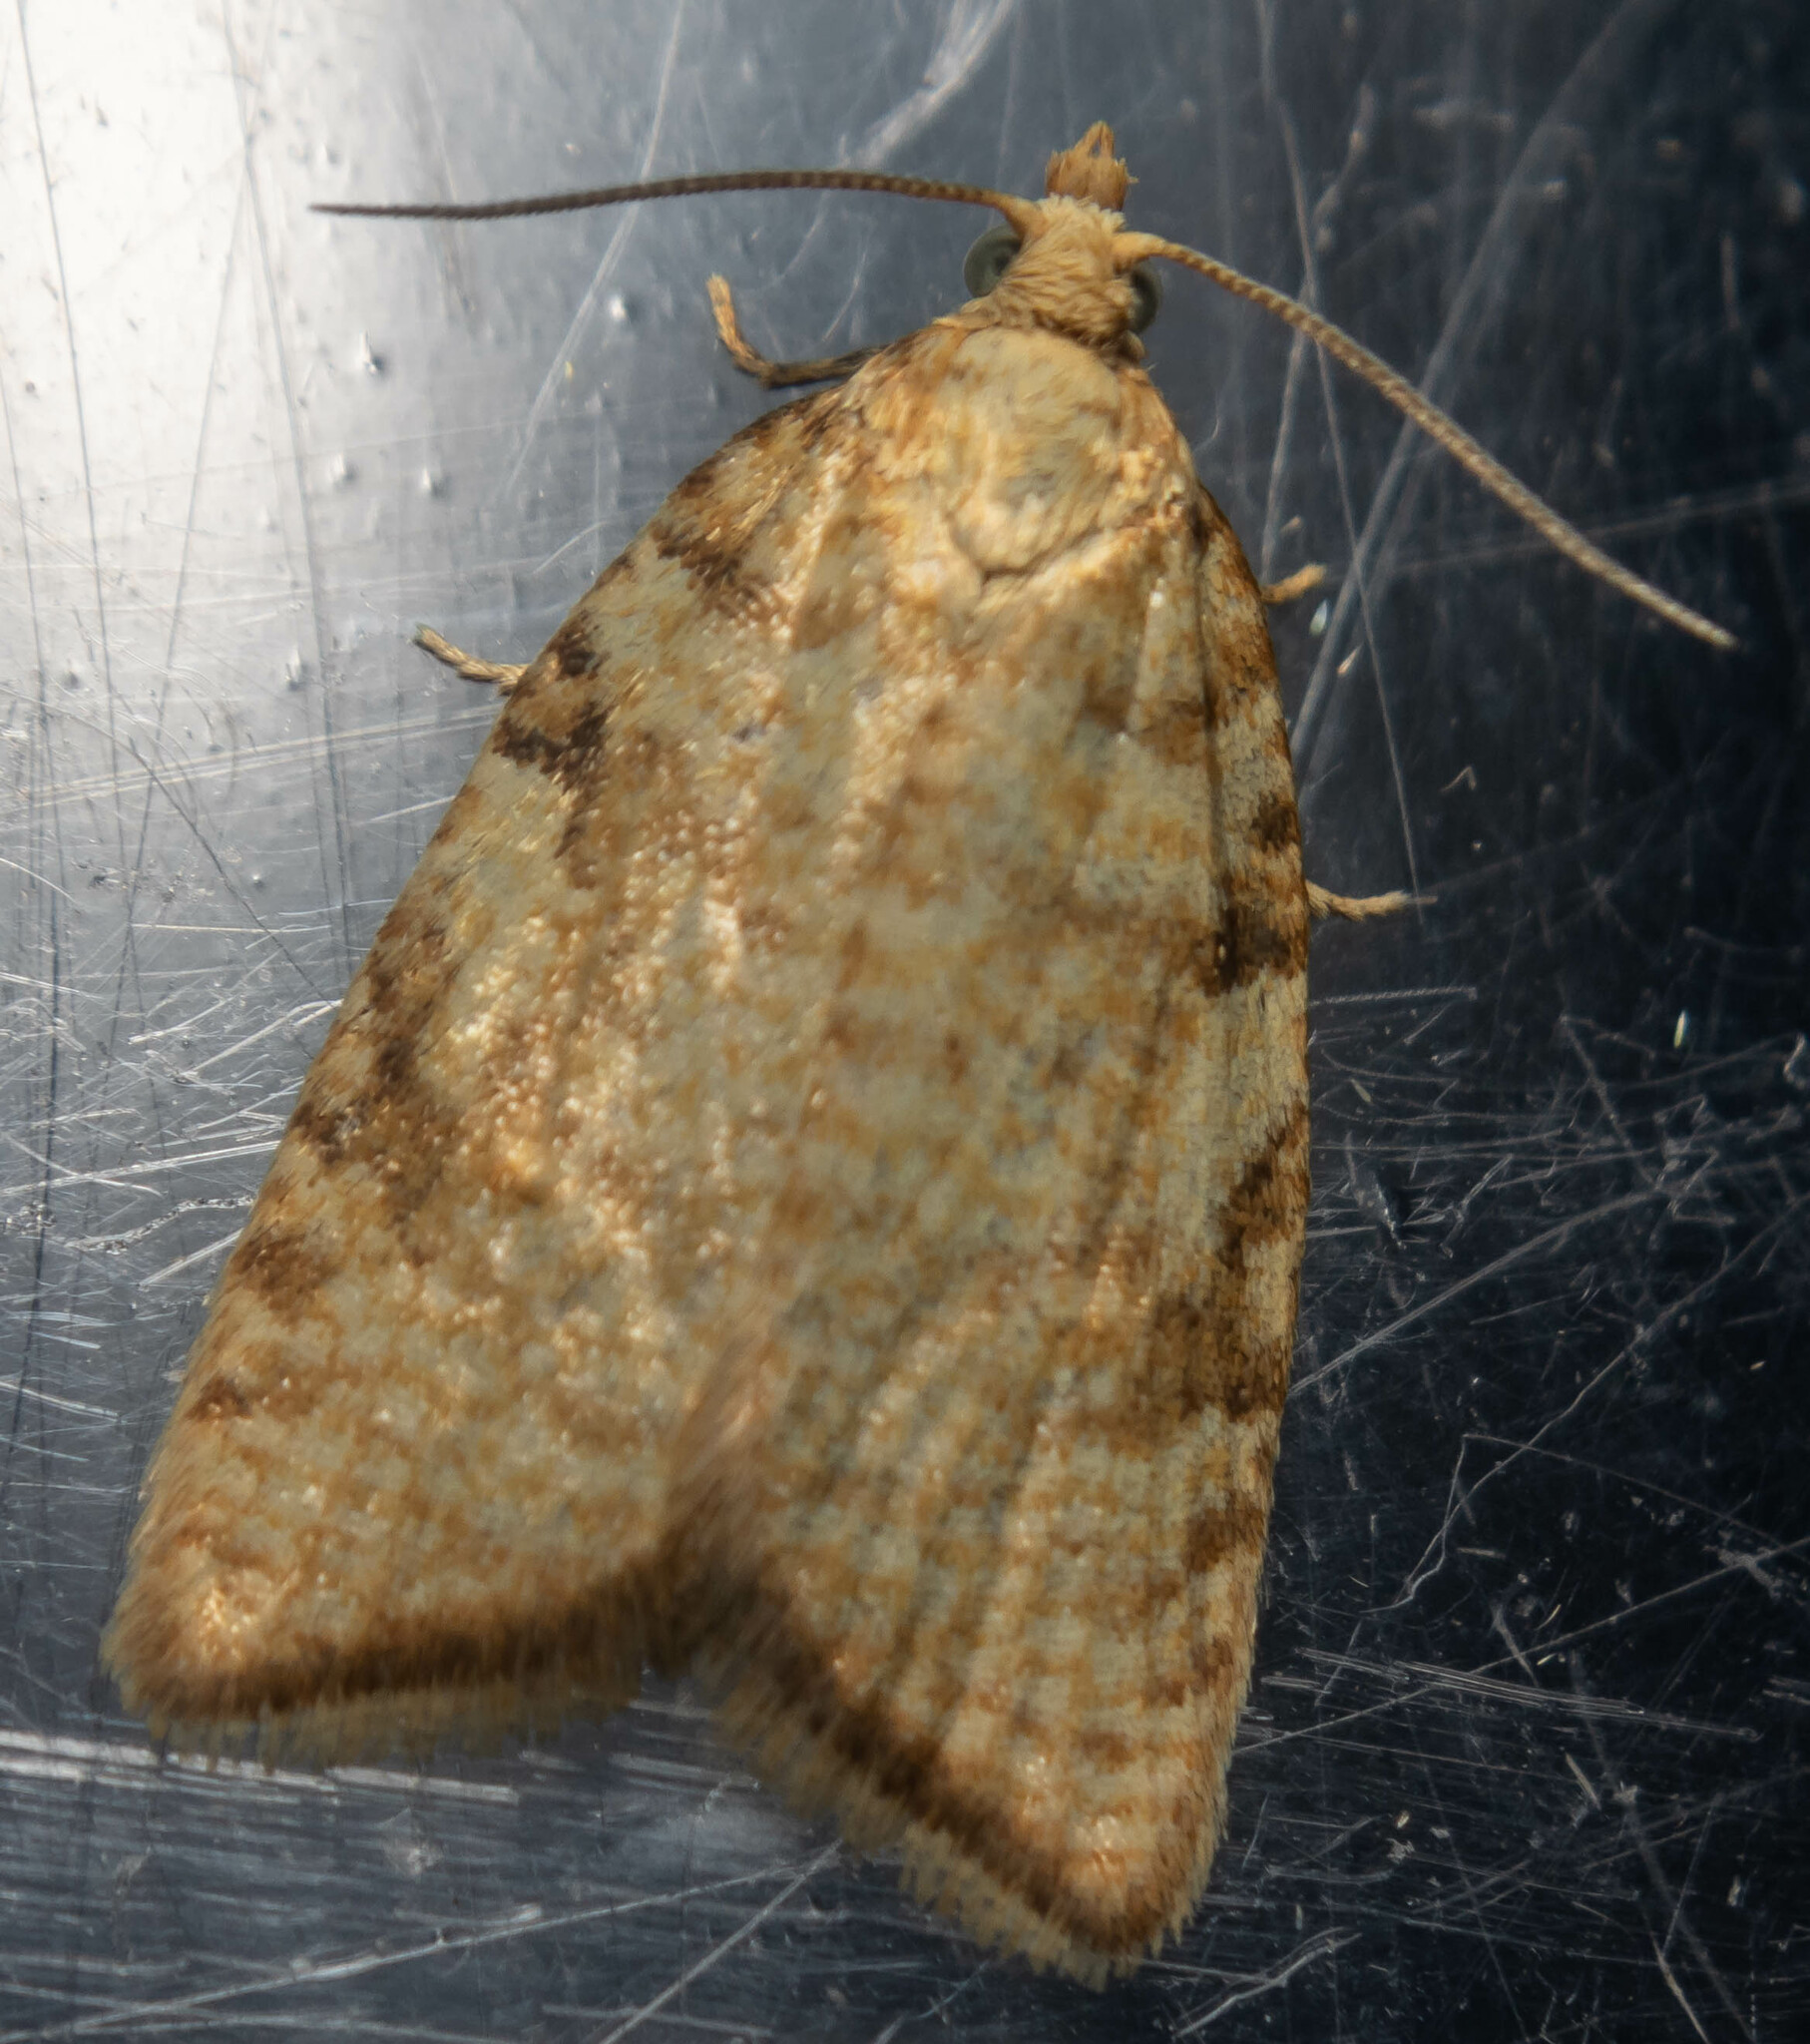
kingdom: Animalia
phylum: Arthropoda
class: Insecta
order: Lepidoptera
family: Tortricidae
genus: Aleimma
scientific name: Aleimma loeflingiana
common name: Yellow oak button
